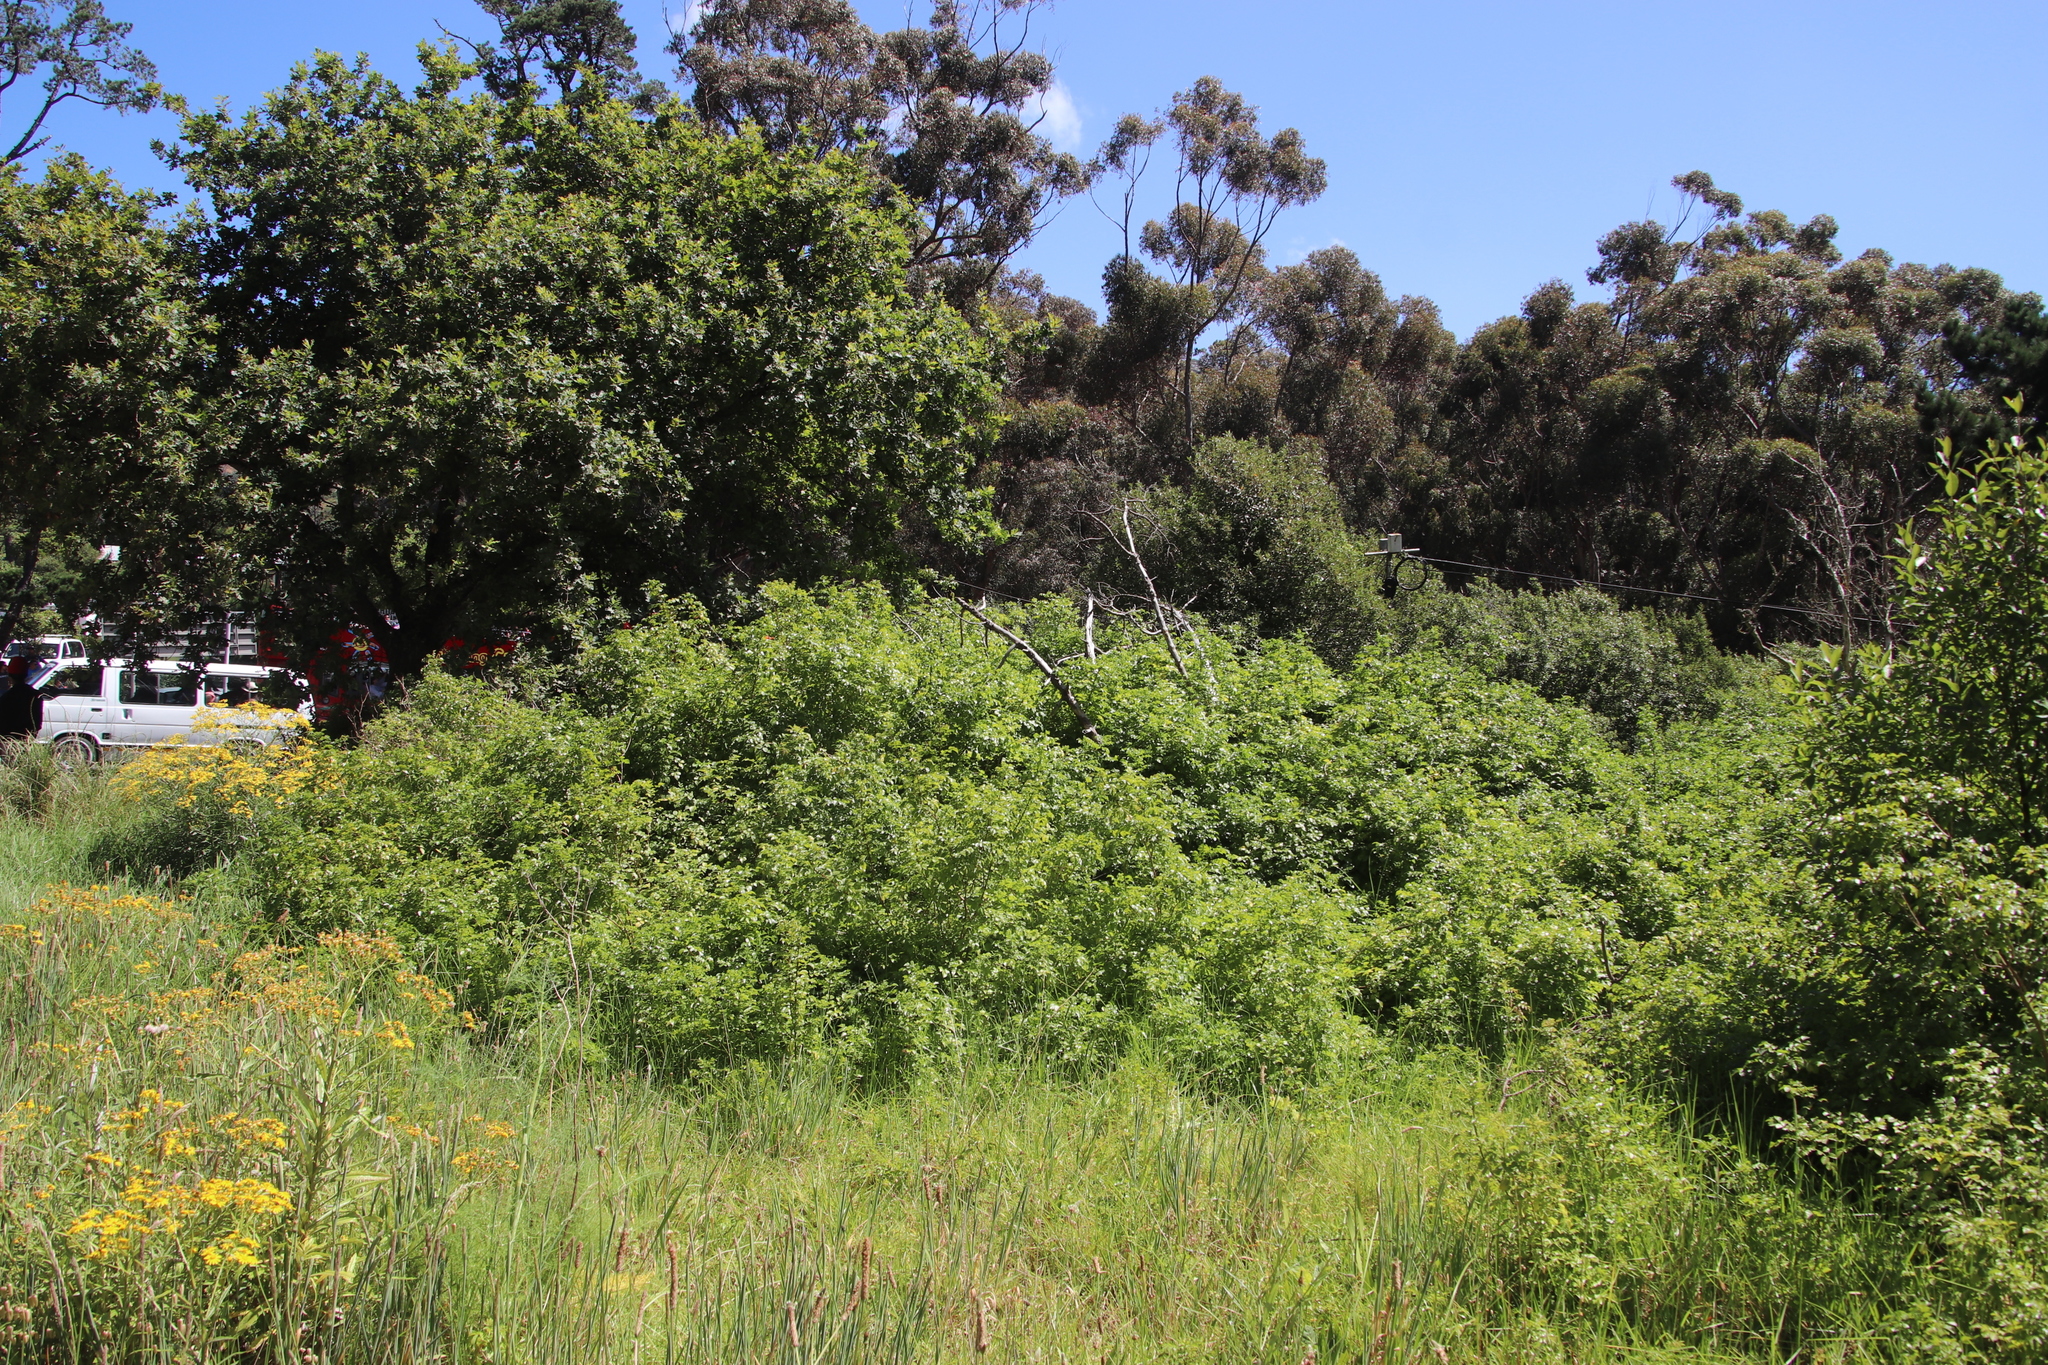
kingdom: Plantae
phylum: Tracheophyta
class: Magnoliopsida
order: Lamiales
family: Bignoniaceae
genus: Tecomaria
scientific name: Tecomaria capensis
